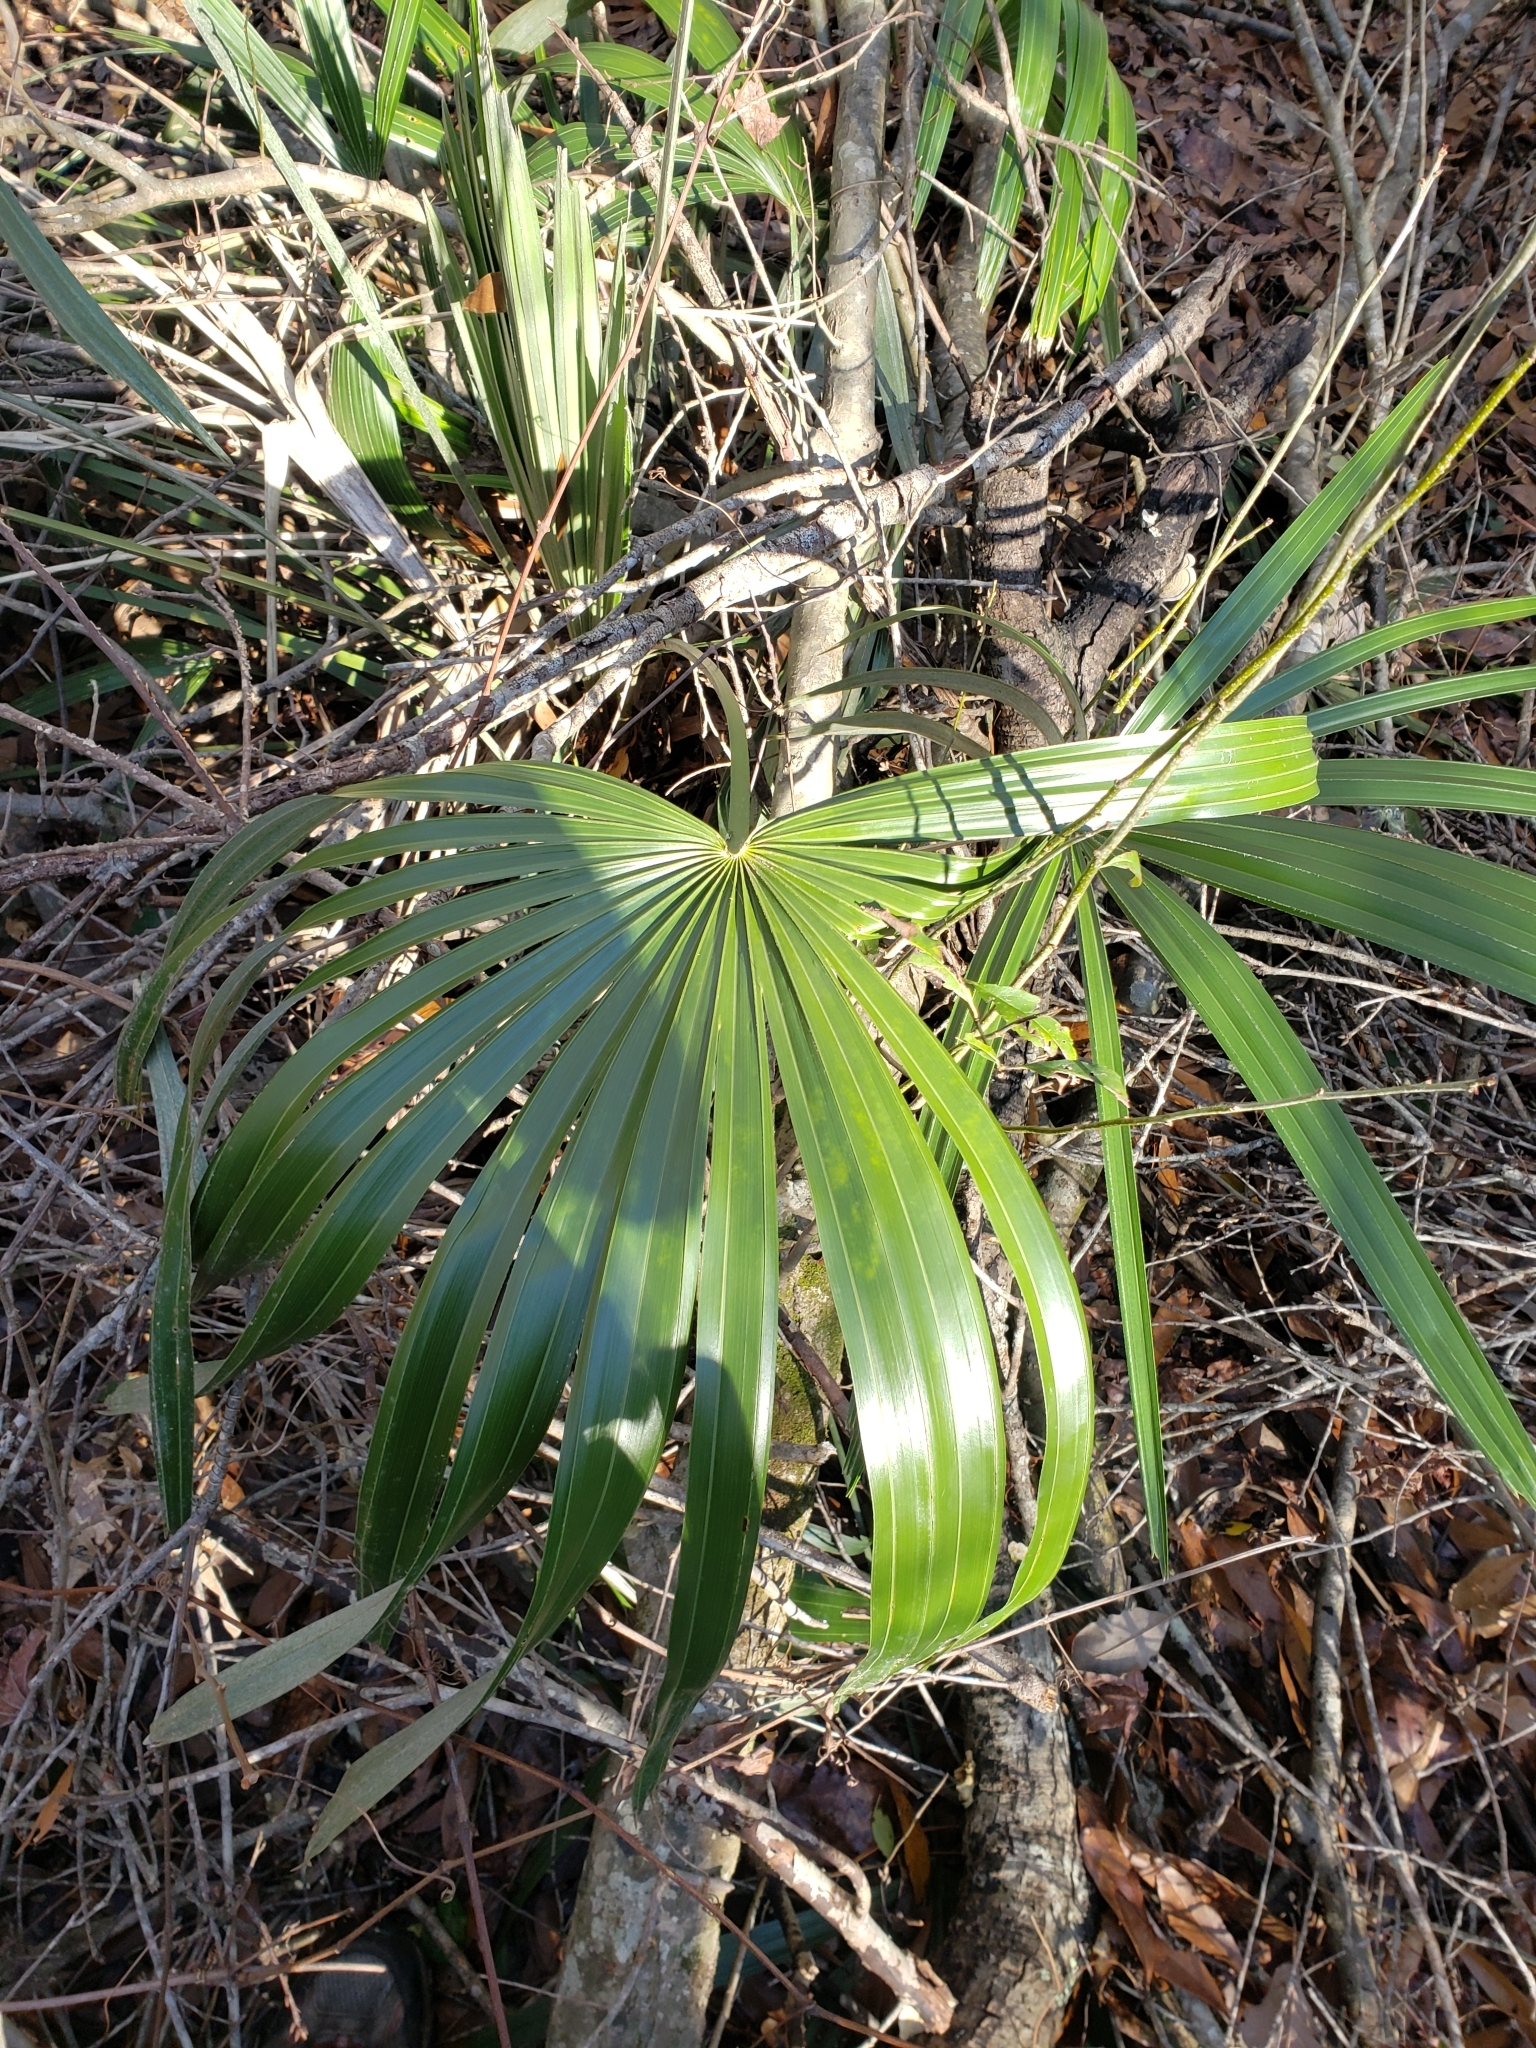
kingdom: Plantae
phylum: Tracheophyta
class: Liliopsida
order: Arecales
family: Arecaceae
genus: Rhapidophyllum
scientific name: Rhapidophyllum hystrix
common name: Porcupine palm
